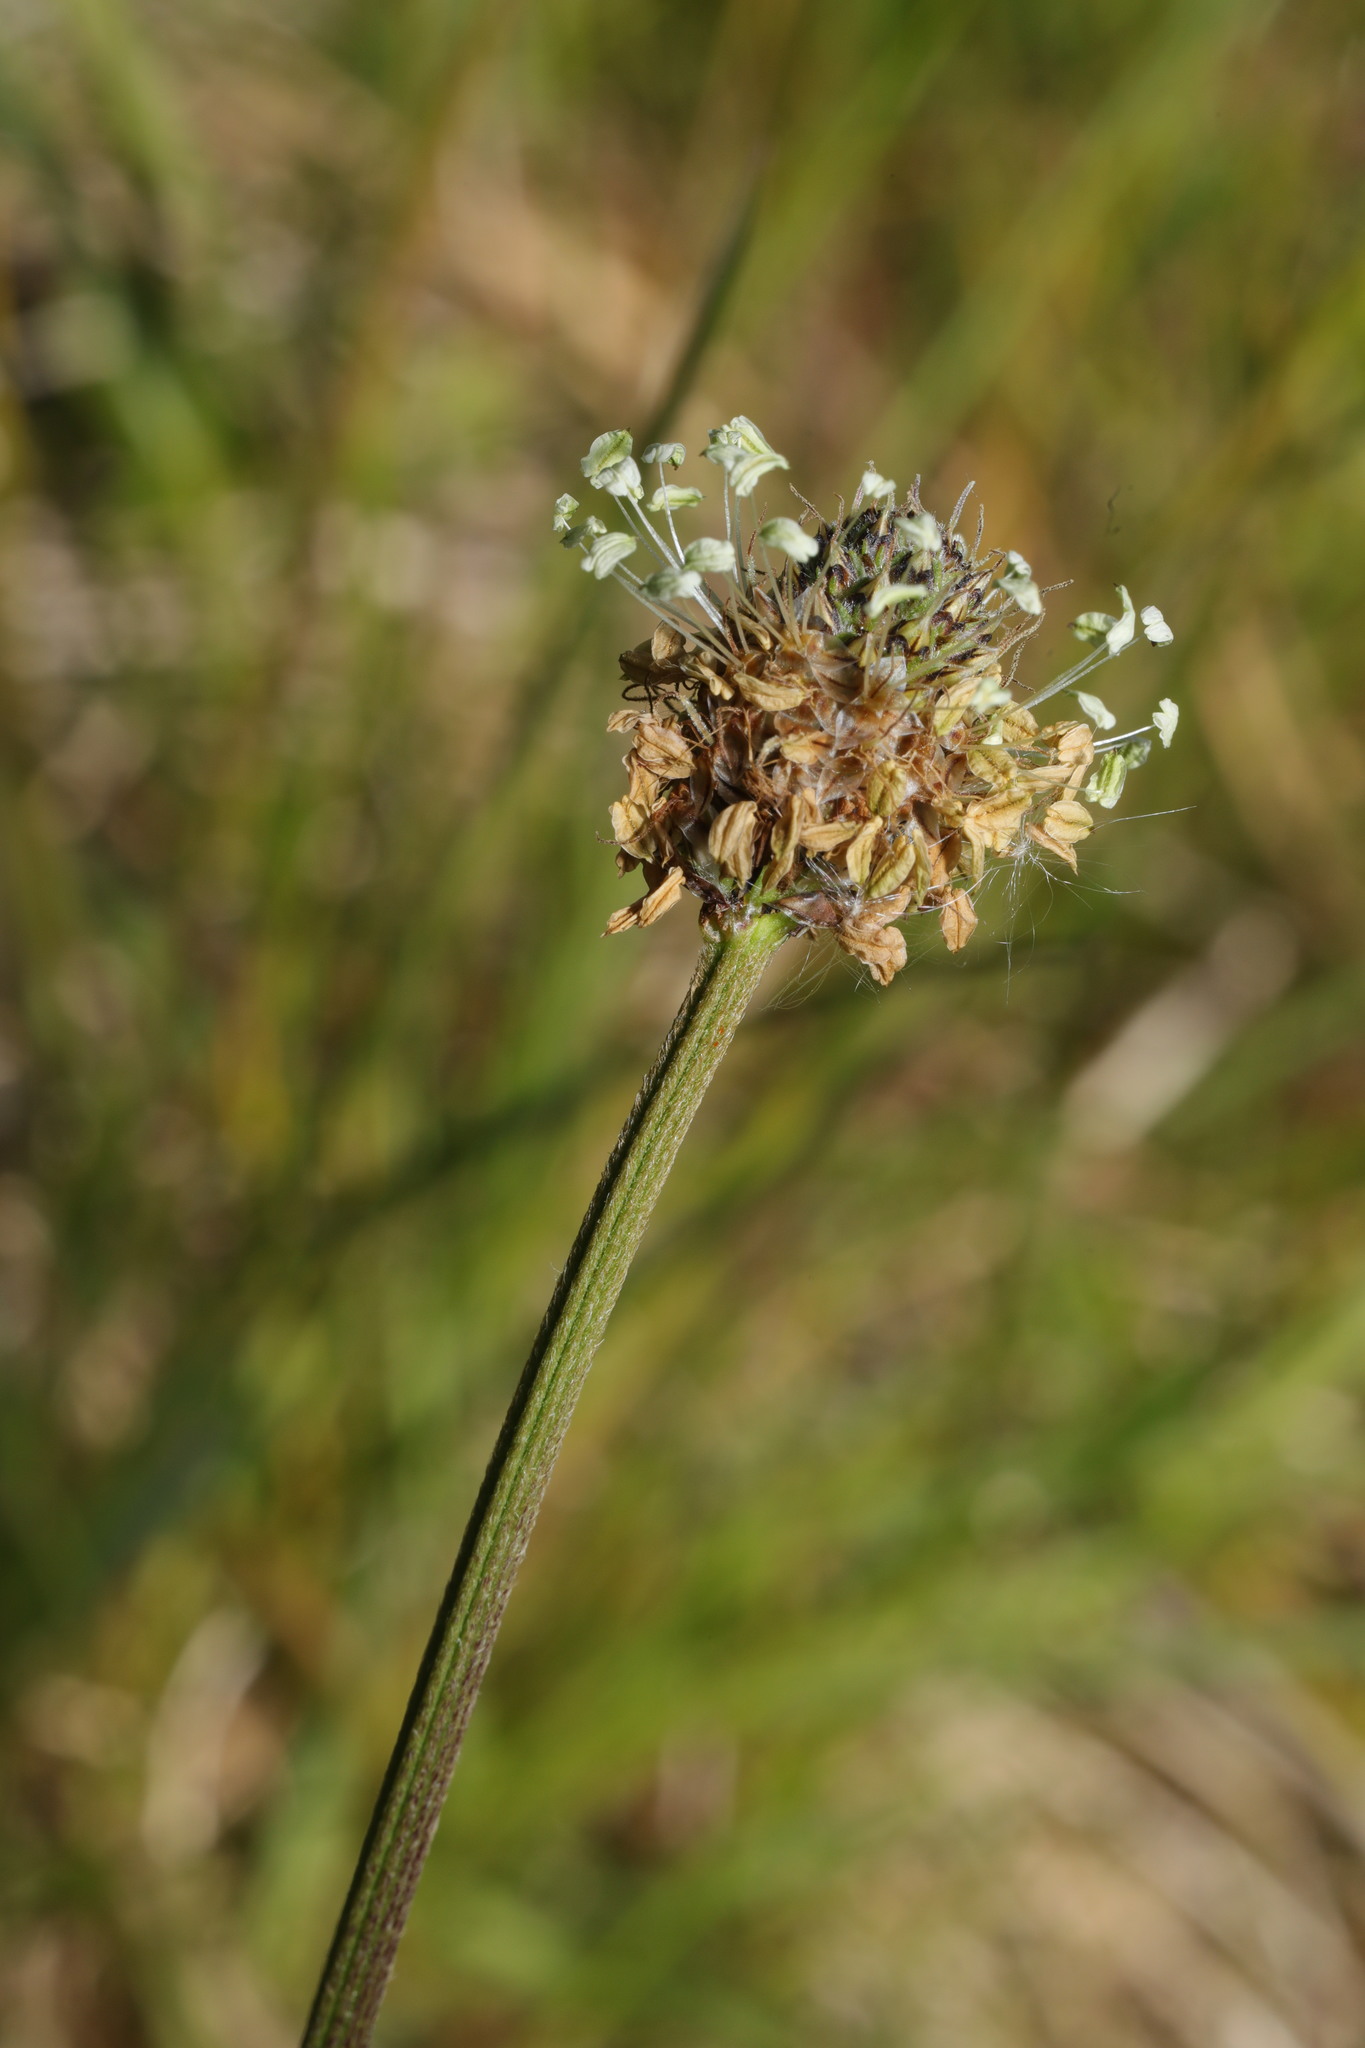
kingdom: Plantae
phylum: Tracheophyta
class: Magnoliopsida
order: Lamiales
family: Plantaginaceae
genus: Plantago
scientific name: Plantago lanceolata
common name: Ribwort plantain
